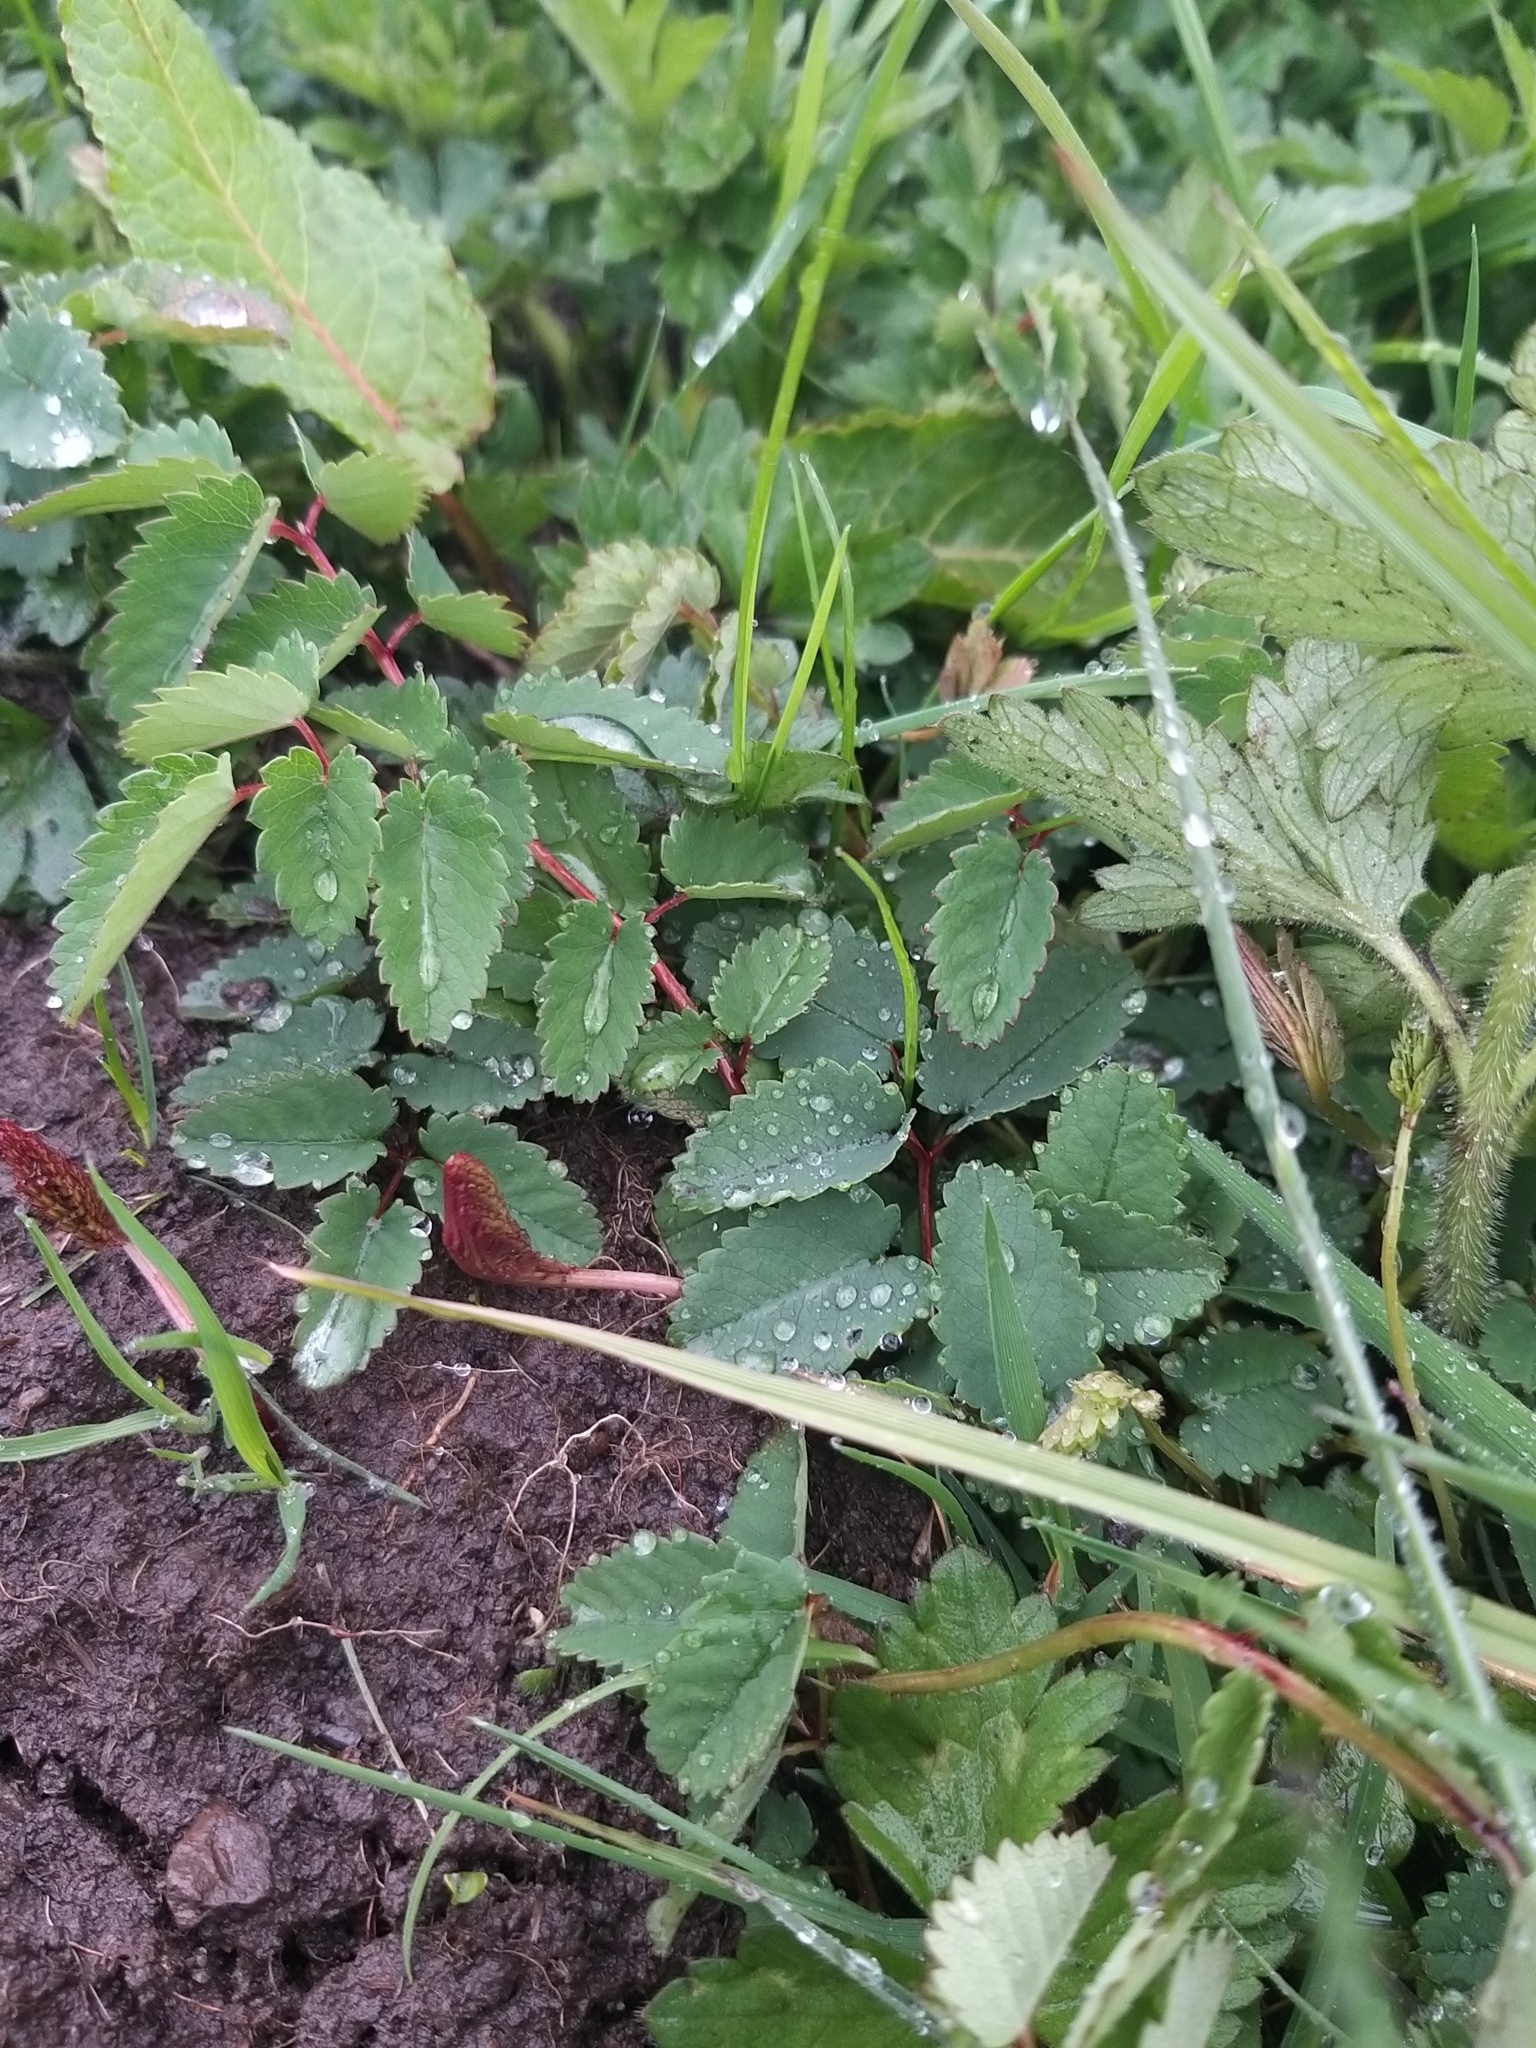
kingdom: Plantae
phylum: Tracheophyta
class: Magnoliopsida
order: Rosales
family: Rosaceae
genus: Sanguisorba
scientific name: Sanguisorba officinalis
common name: Great burnet
